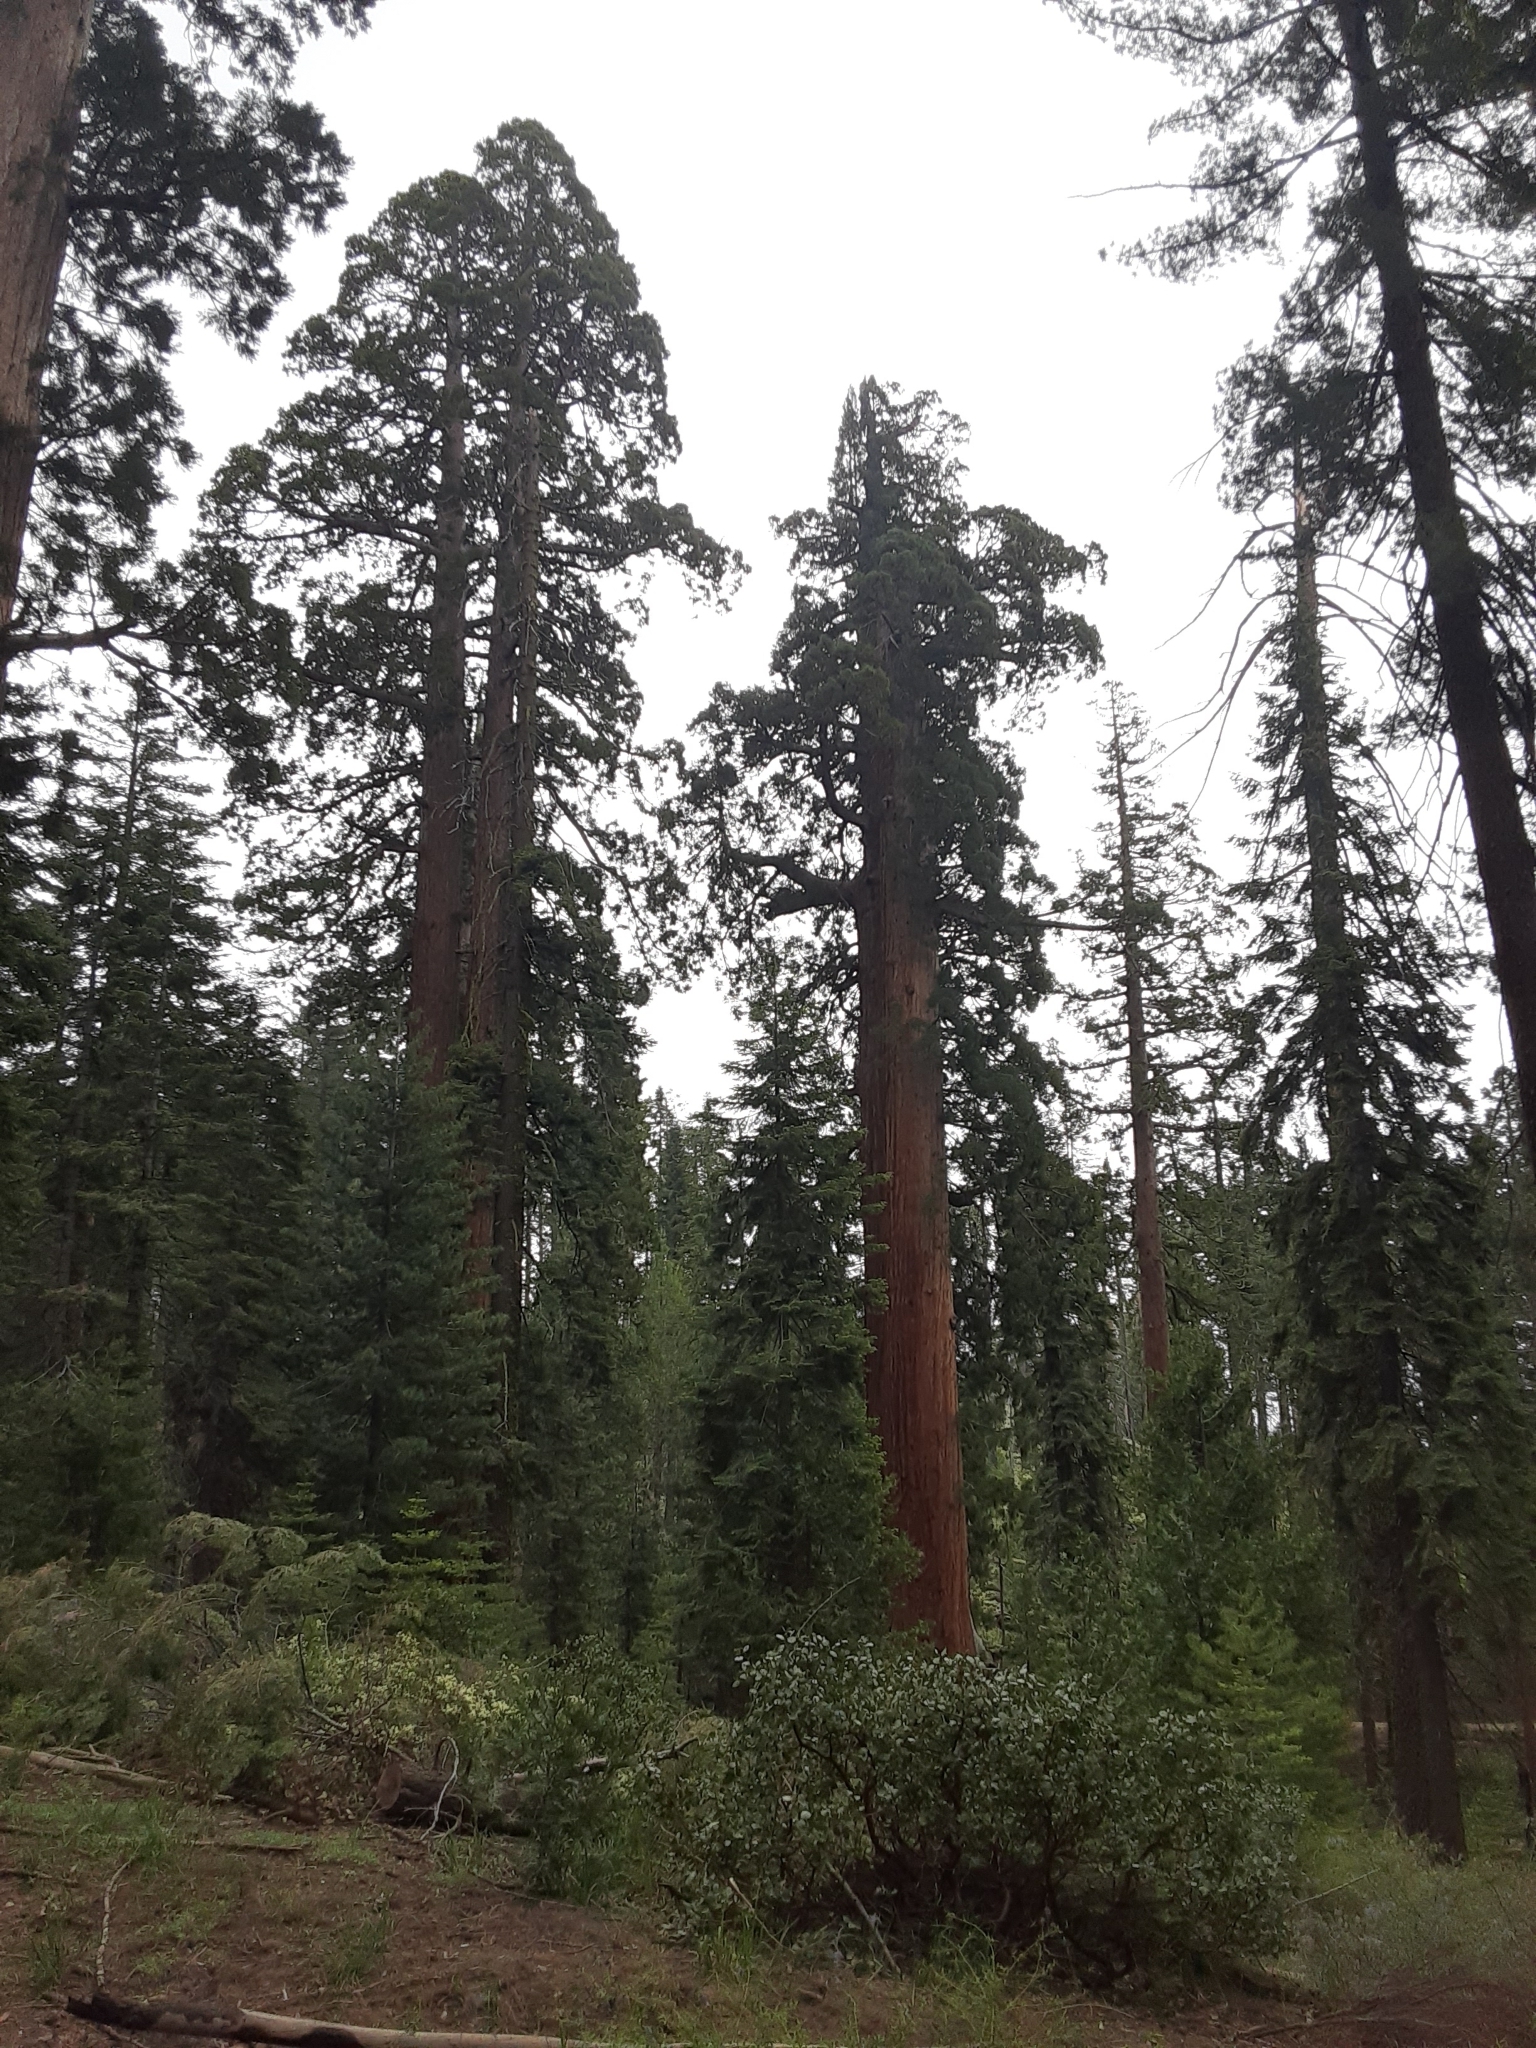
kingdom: Plantae
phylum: Tracheophyta
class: Pinopsida
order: Pinales
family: Cupressaceae
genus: Sequoiadendron
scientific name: Sequoiadendron giganteum
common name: Wellingtonia
